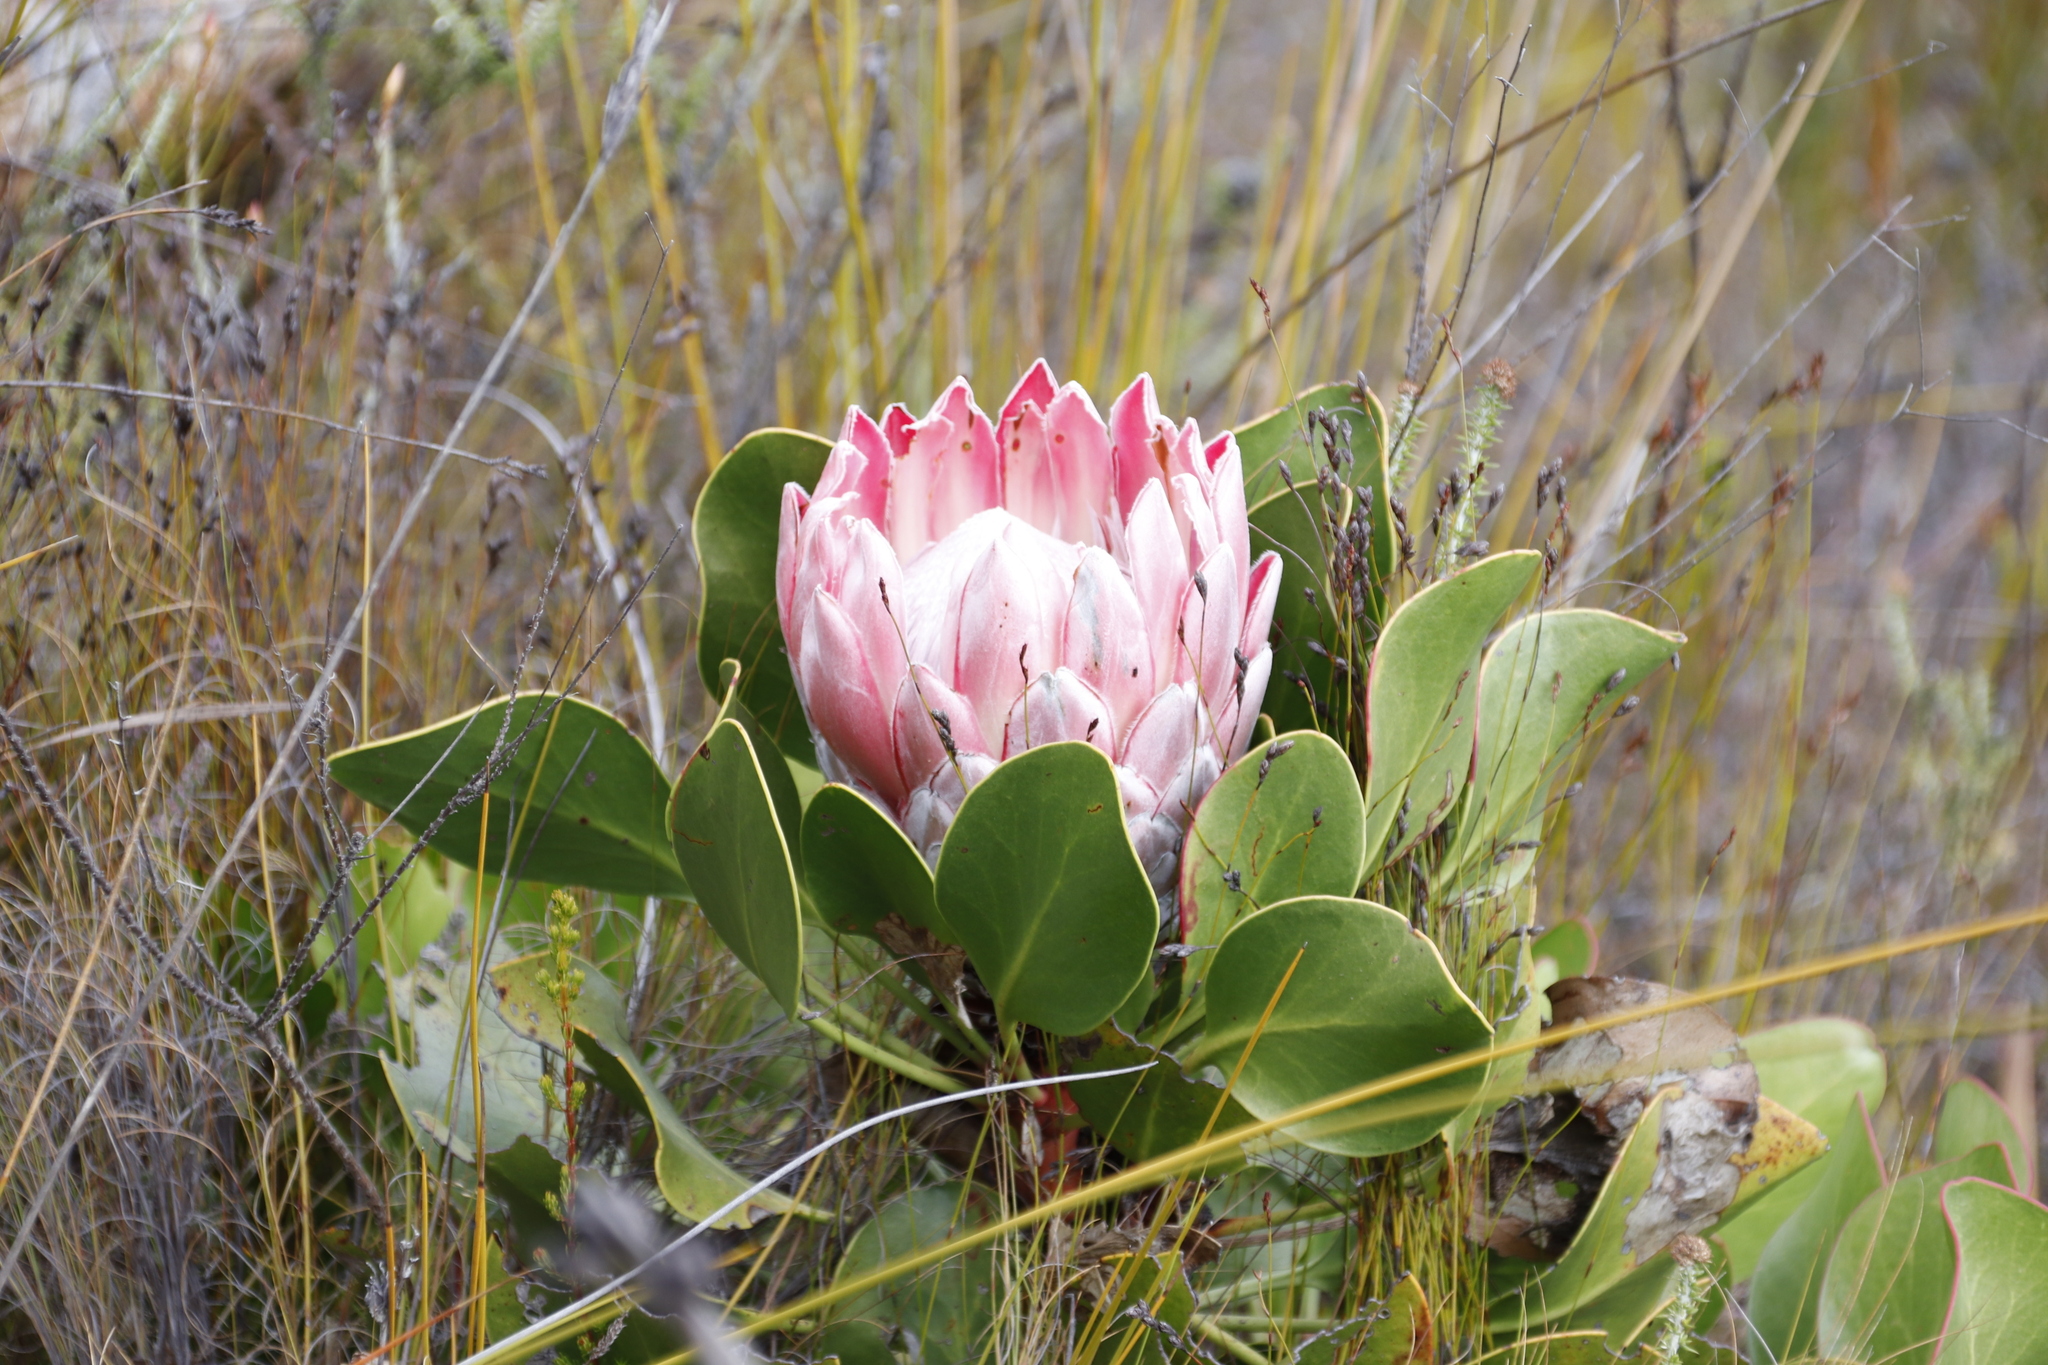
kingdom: Plantae
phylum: Tracheophyta
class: Magnoliopsida
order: Proteales
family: Proteaceae
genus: Protea
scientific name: Protea cynaroides
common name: King protea
